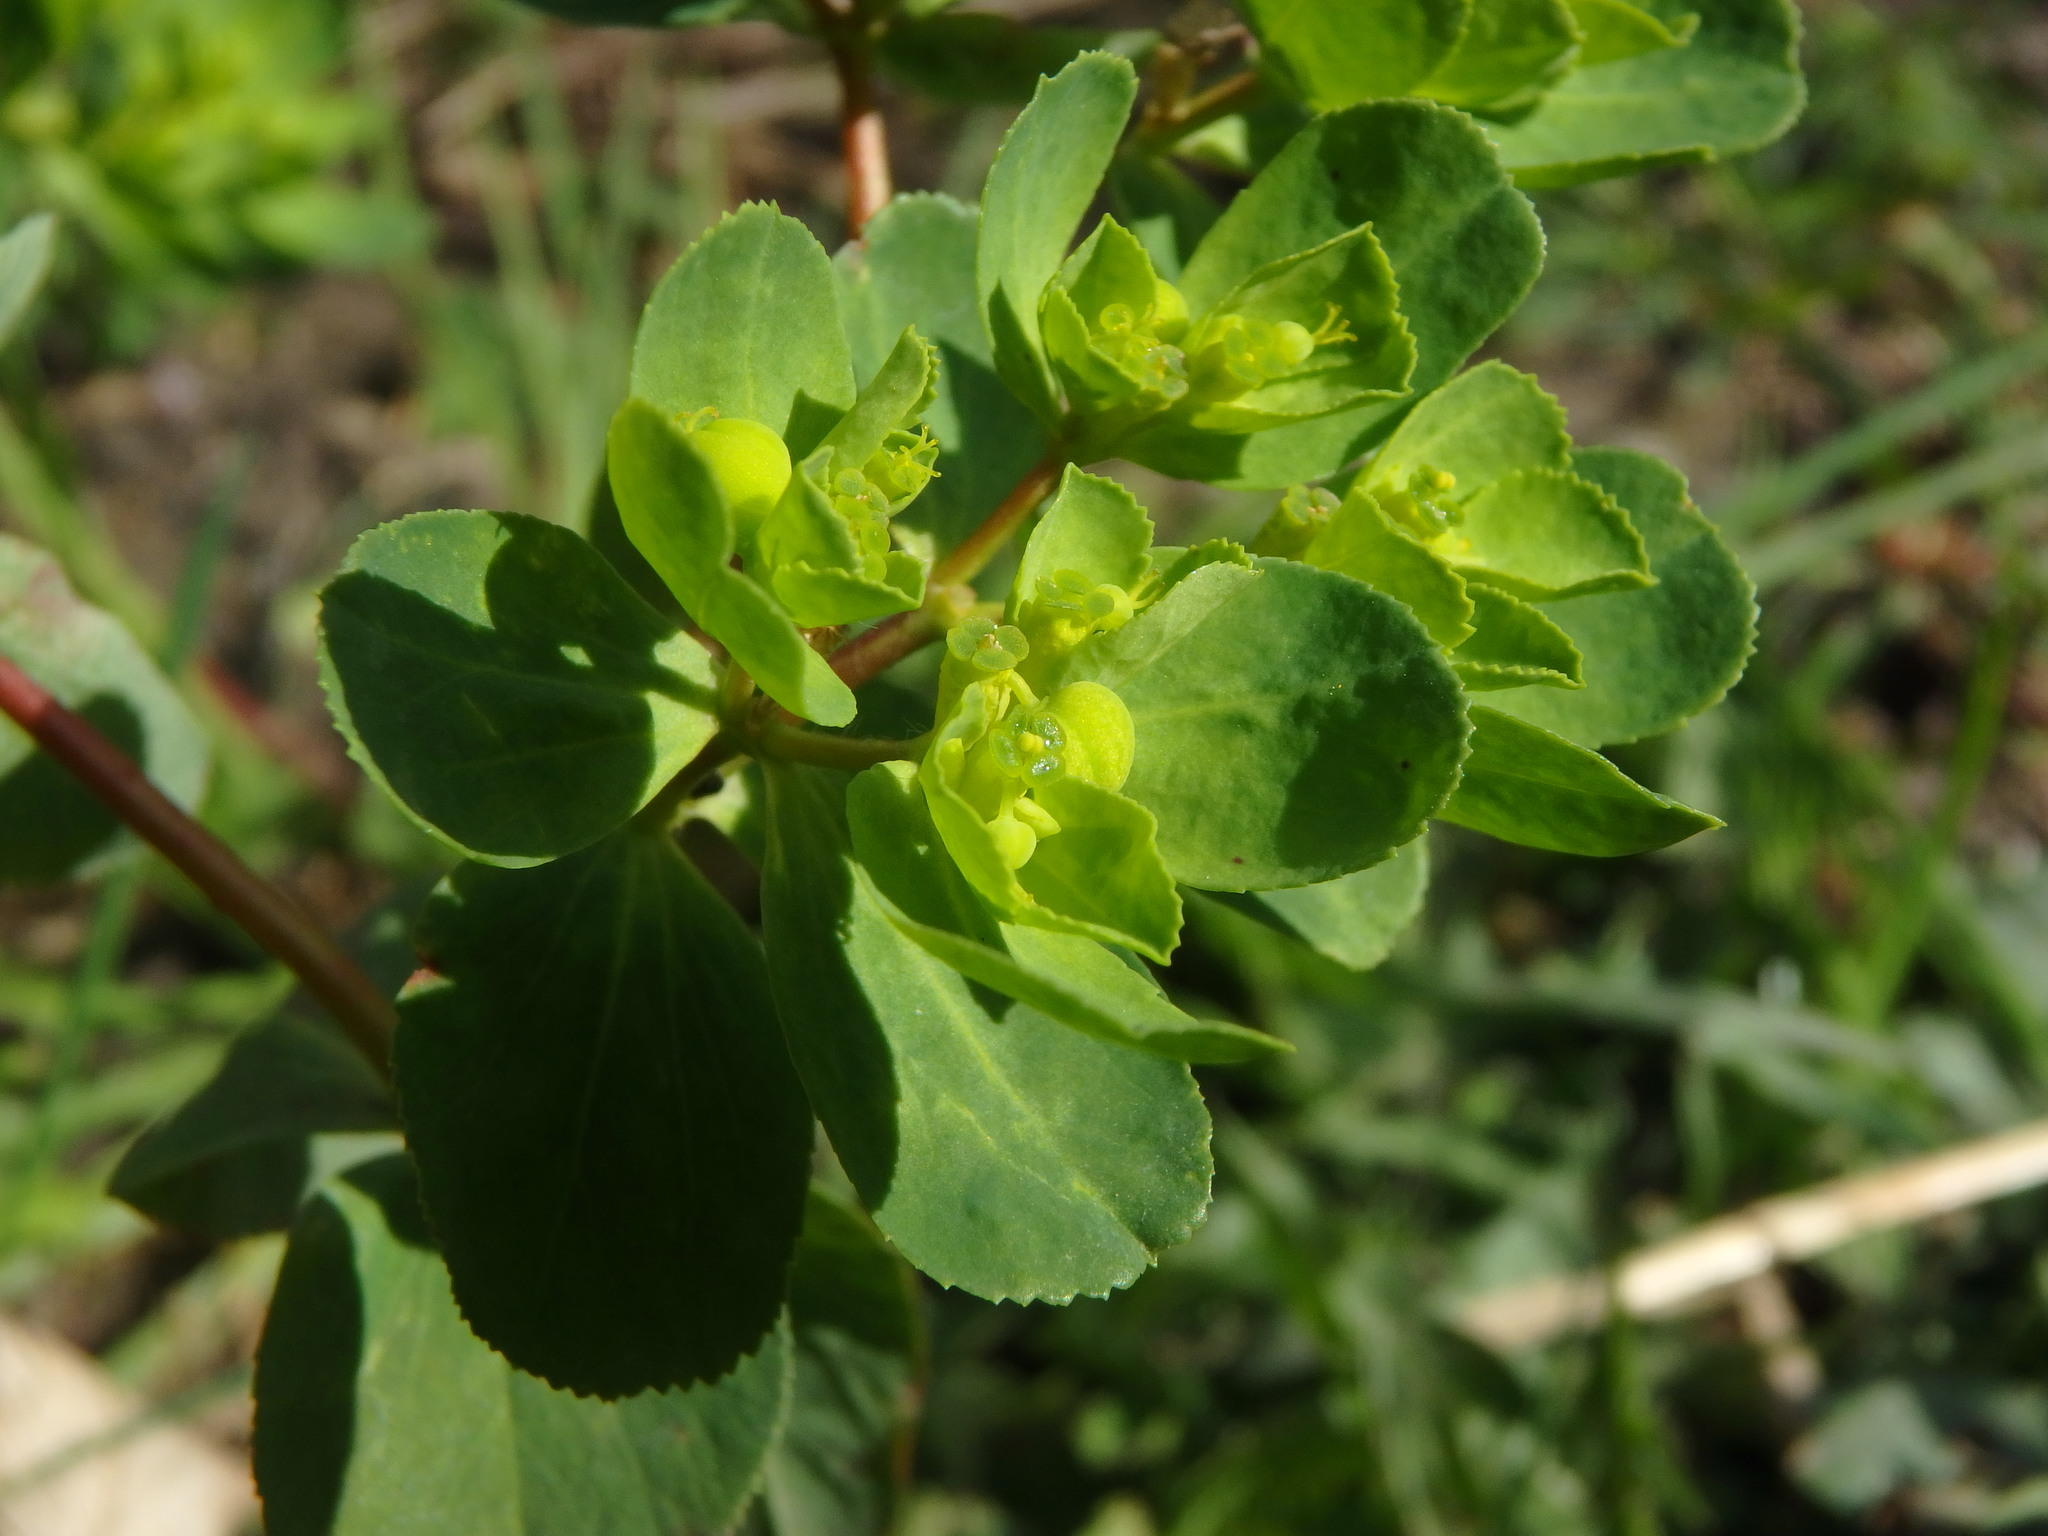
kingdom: Plantae
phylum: Tracheophyta
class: Magnoliopsida
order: Malpighiales
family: Euphorbiaceae
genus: Euphorbia
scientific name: Euphorbia helioscopia
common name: Sun spurge
